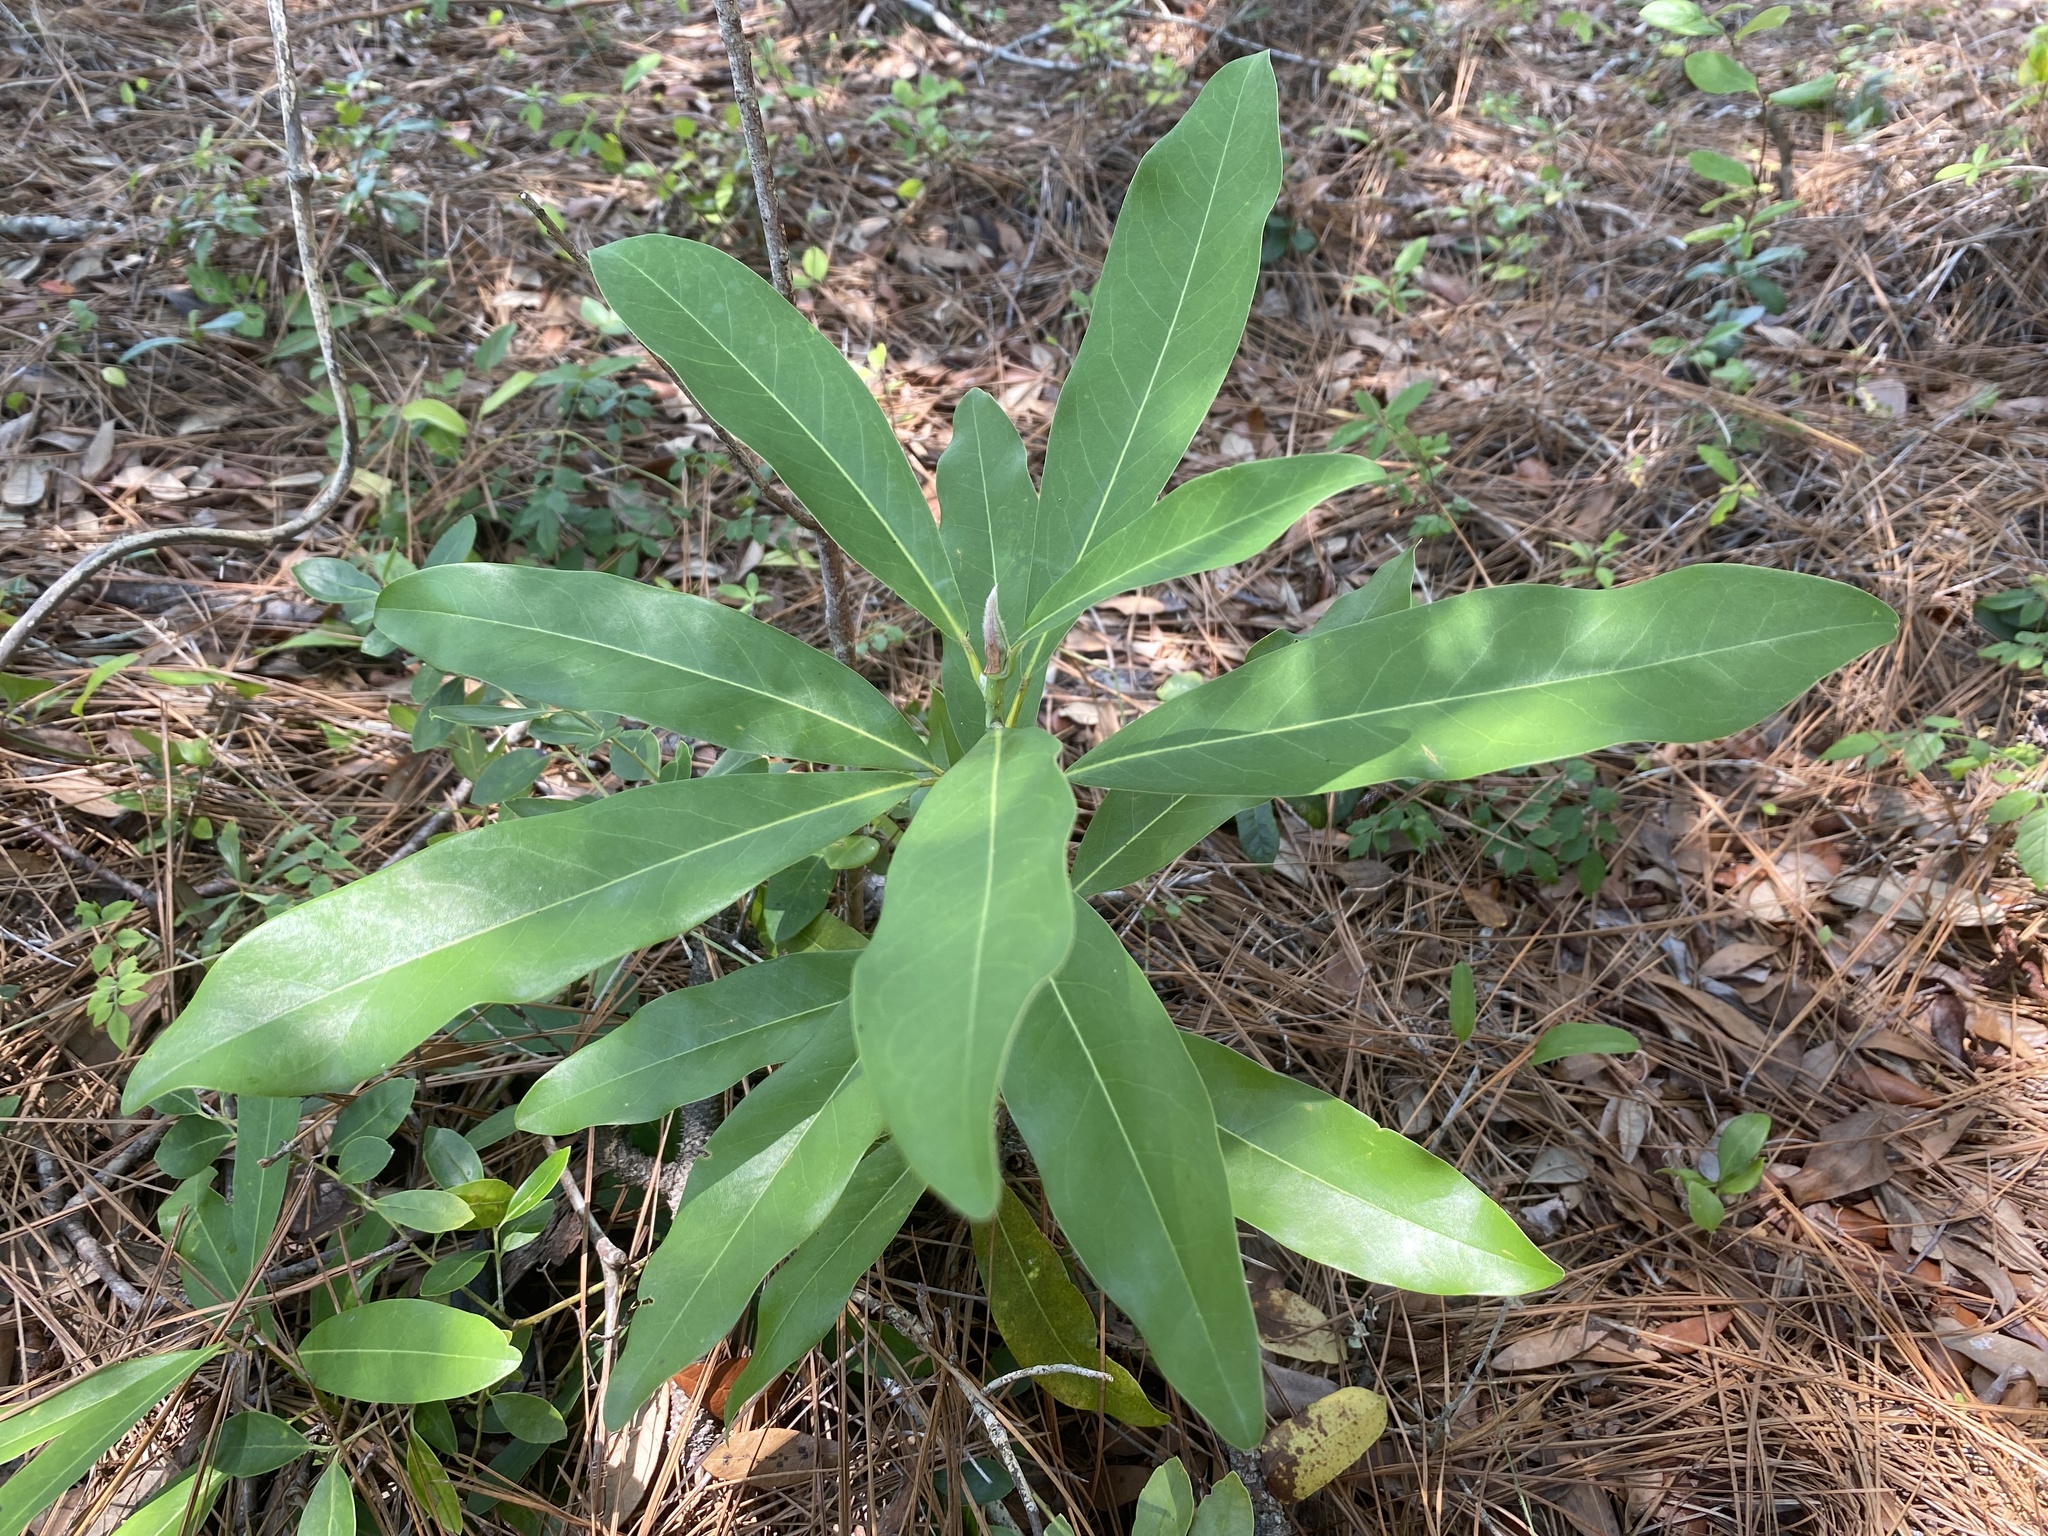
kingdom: Plantae
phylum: Tracheophyta
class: Magnoliopsida
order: Magnoliales
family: Magnoliaceae
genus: Magnolia
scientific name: Magnolia virginiana
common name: Swamp bay
